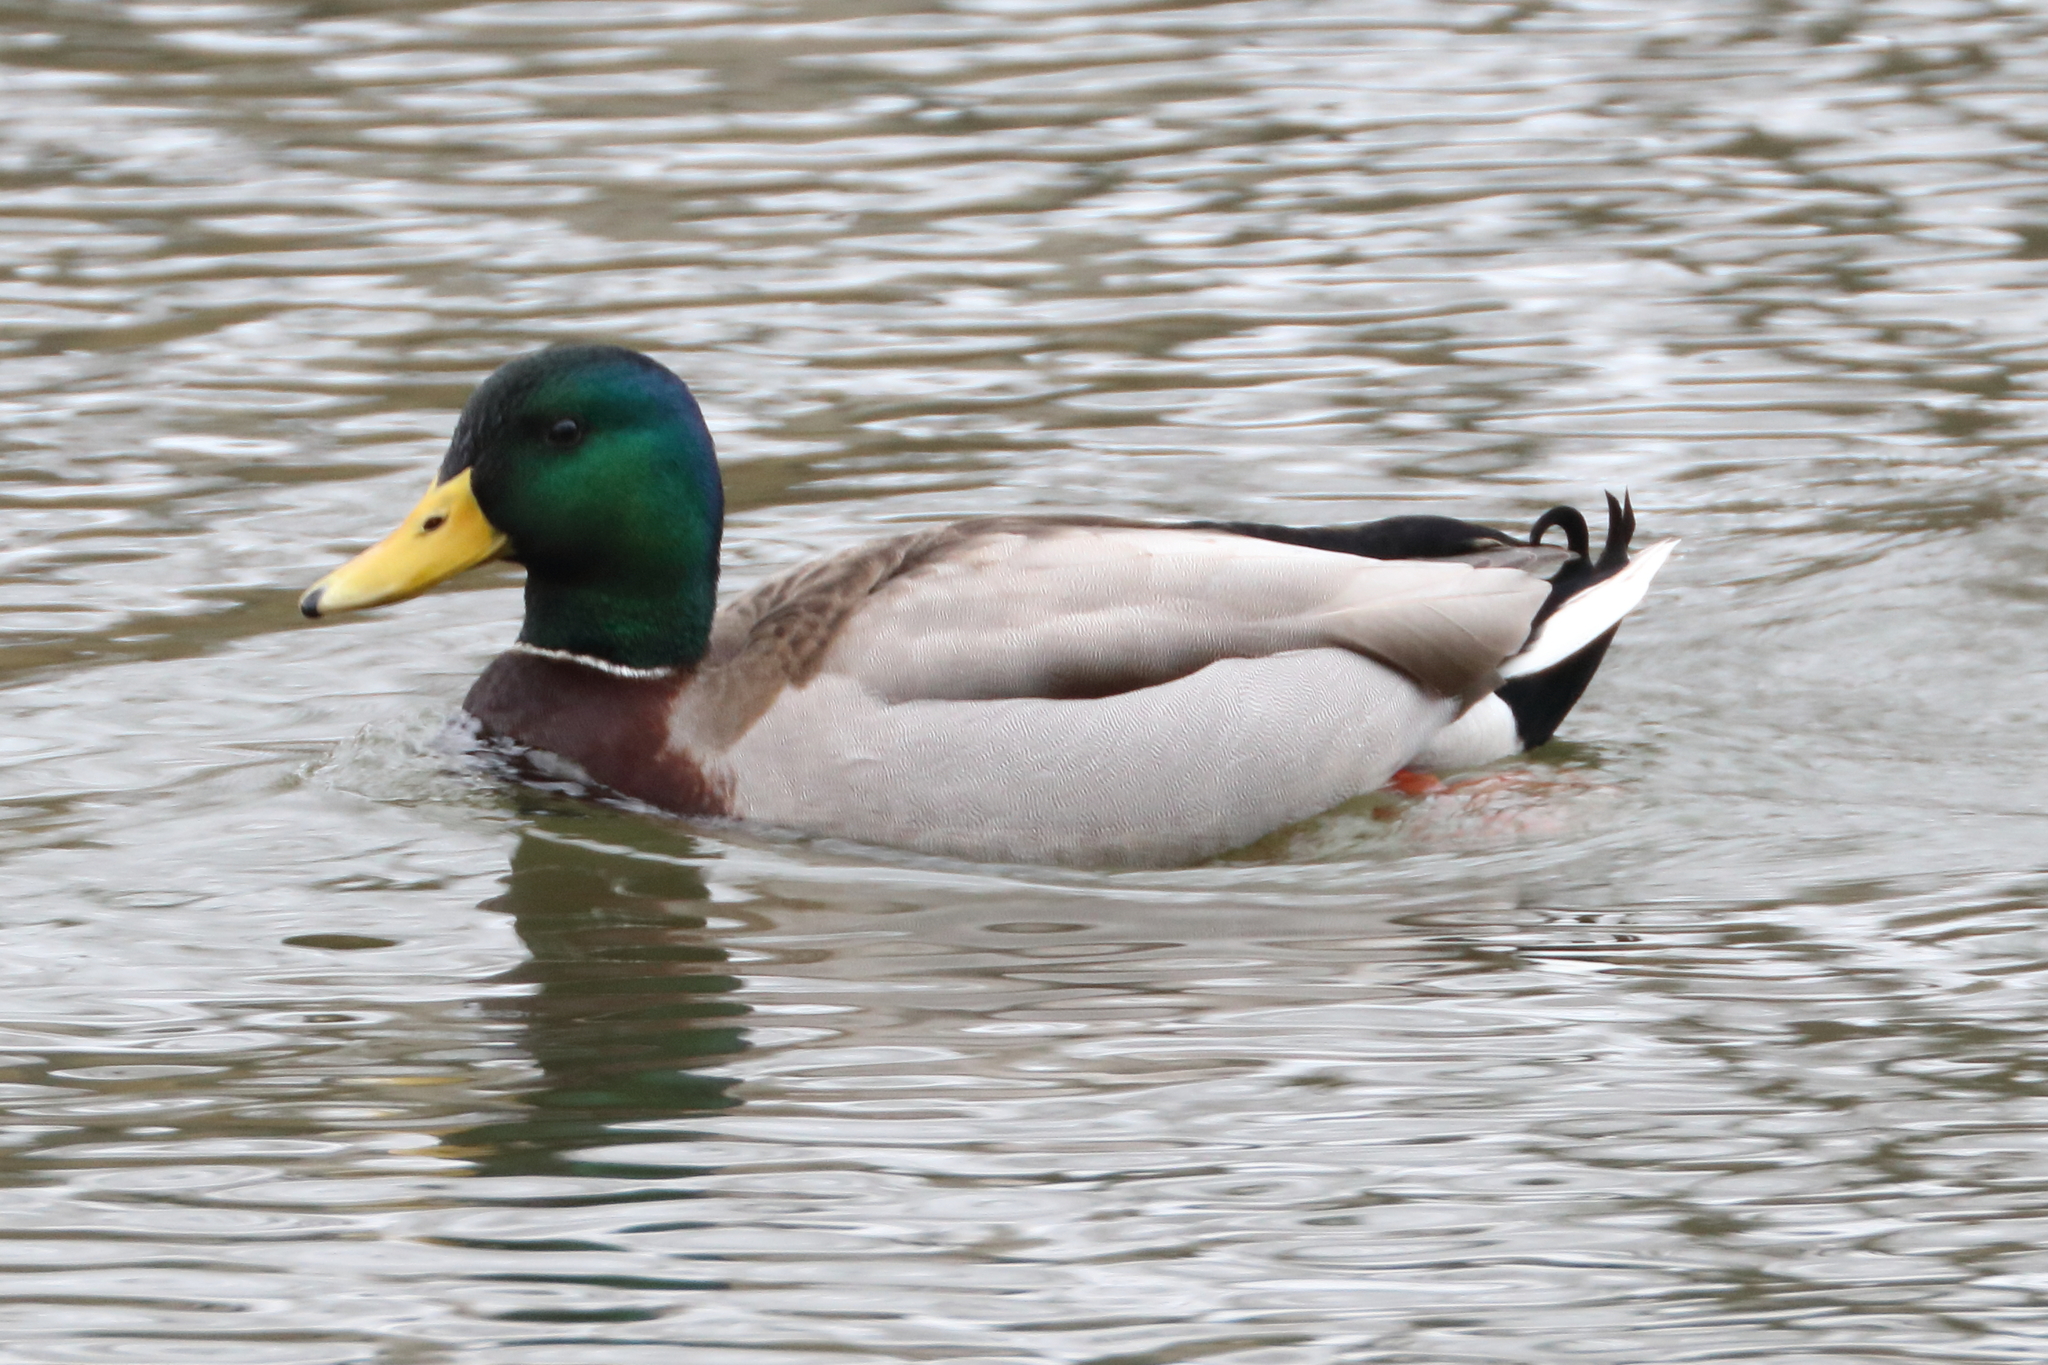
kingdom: Animalia
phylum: Chordata
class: Aves
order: Anseriformes
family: Anatidae
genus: Anas
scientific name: Anas platyrhynchos
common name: Mallard
